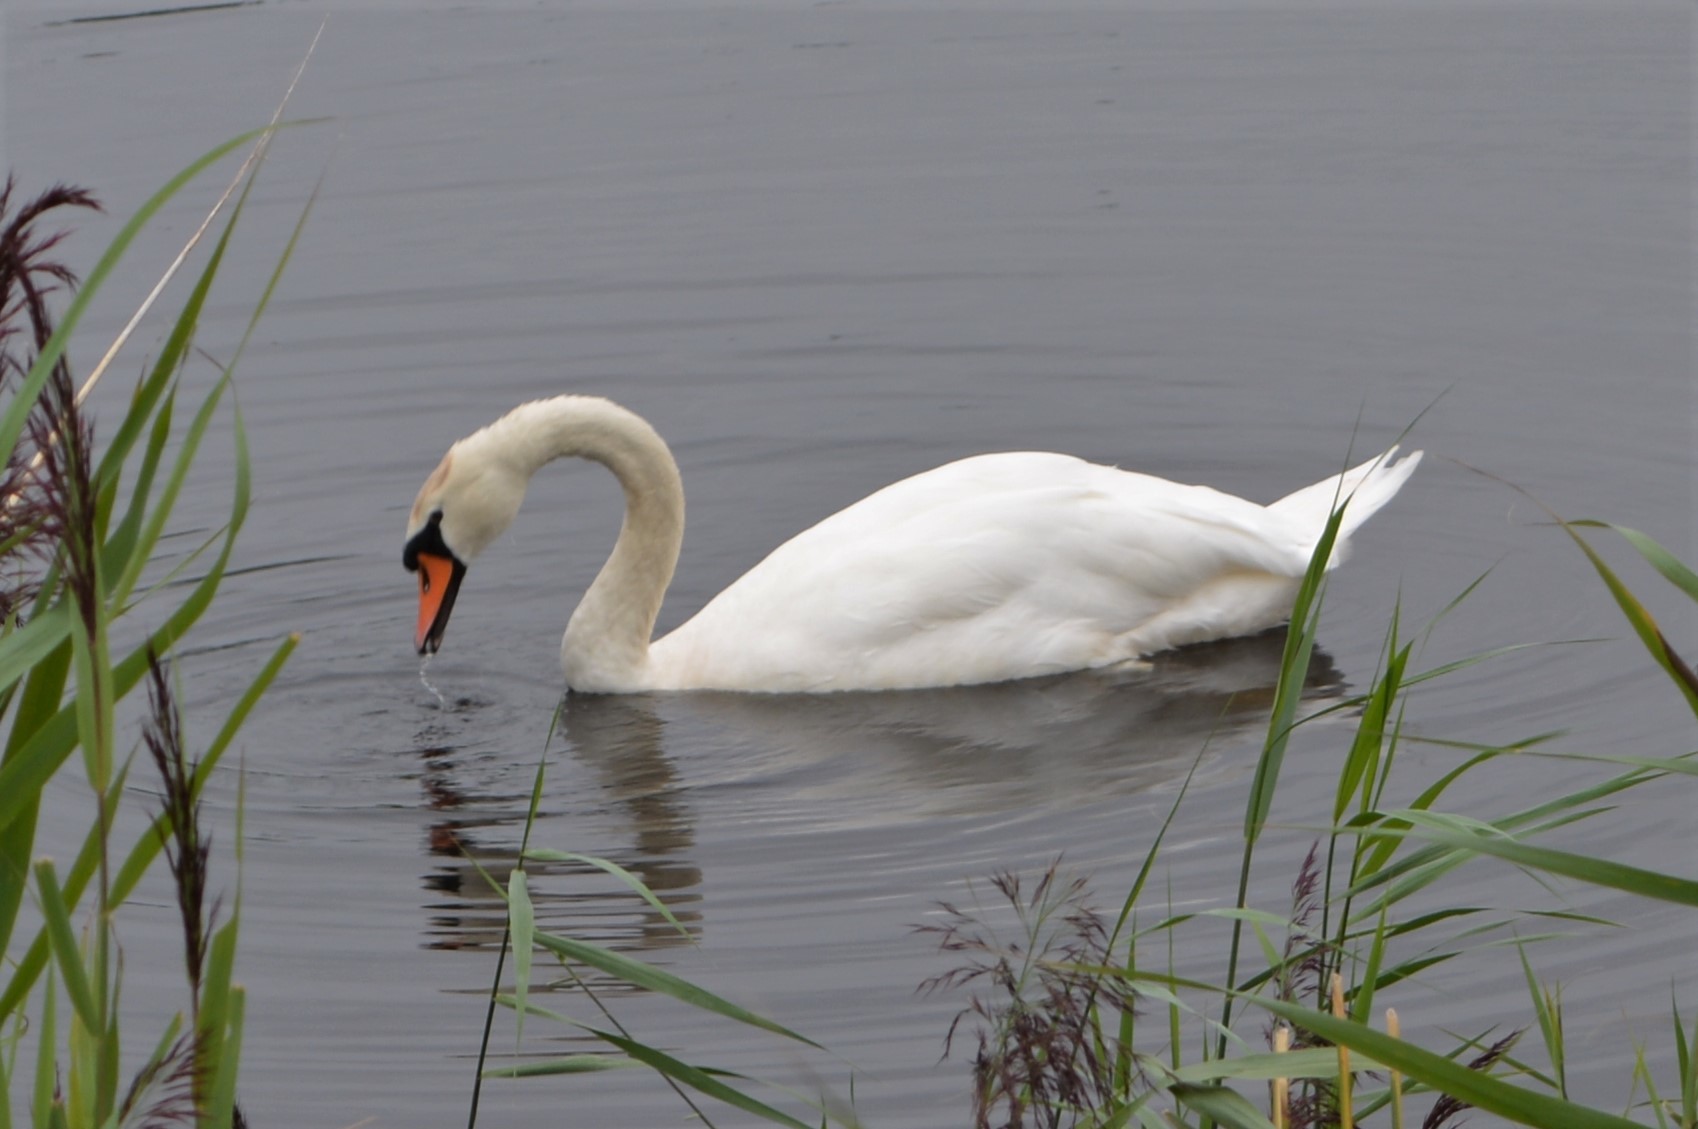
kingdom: Animalia
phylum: Chordata
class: Aves
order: Anseriformes
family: Anatidae
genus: Cygnus
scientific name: Cygnus olor
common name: Mute swan
